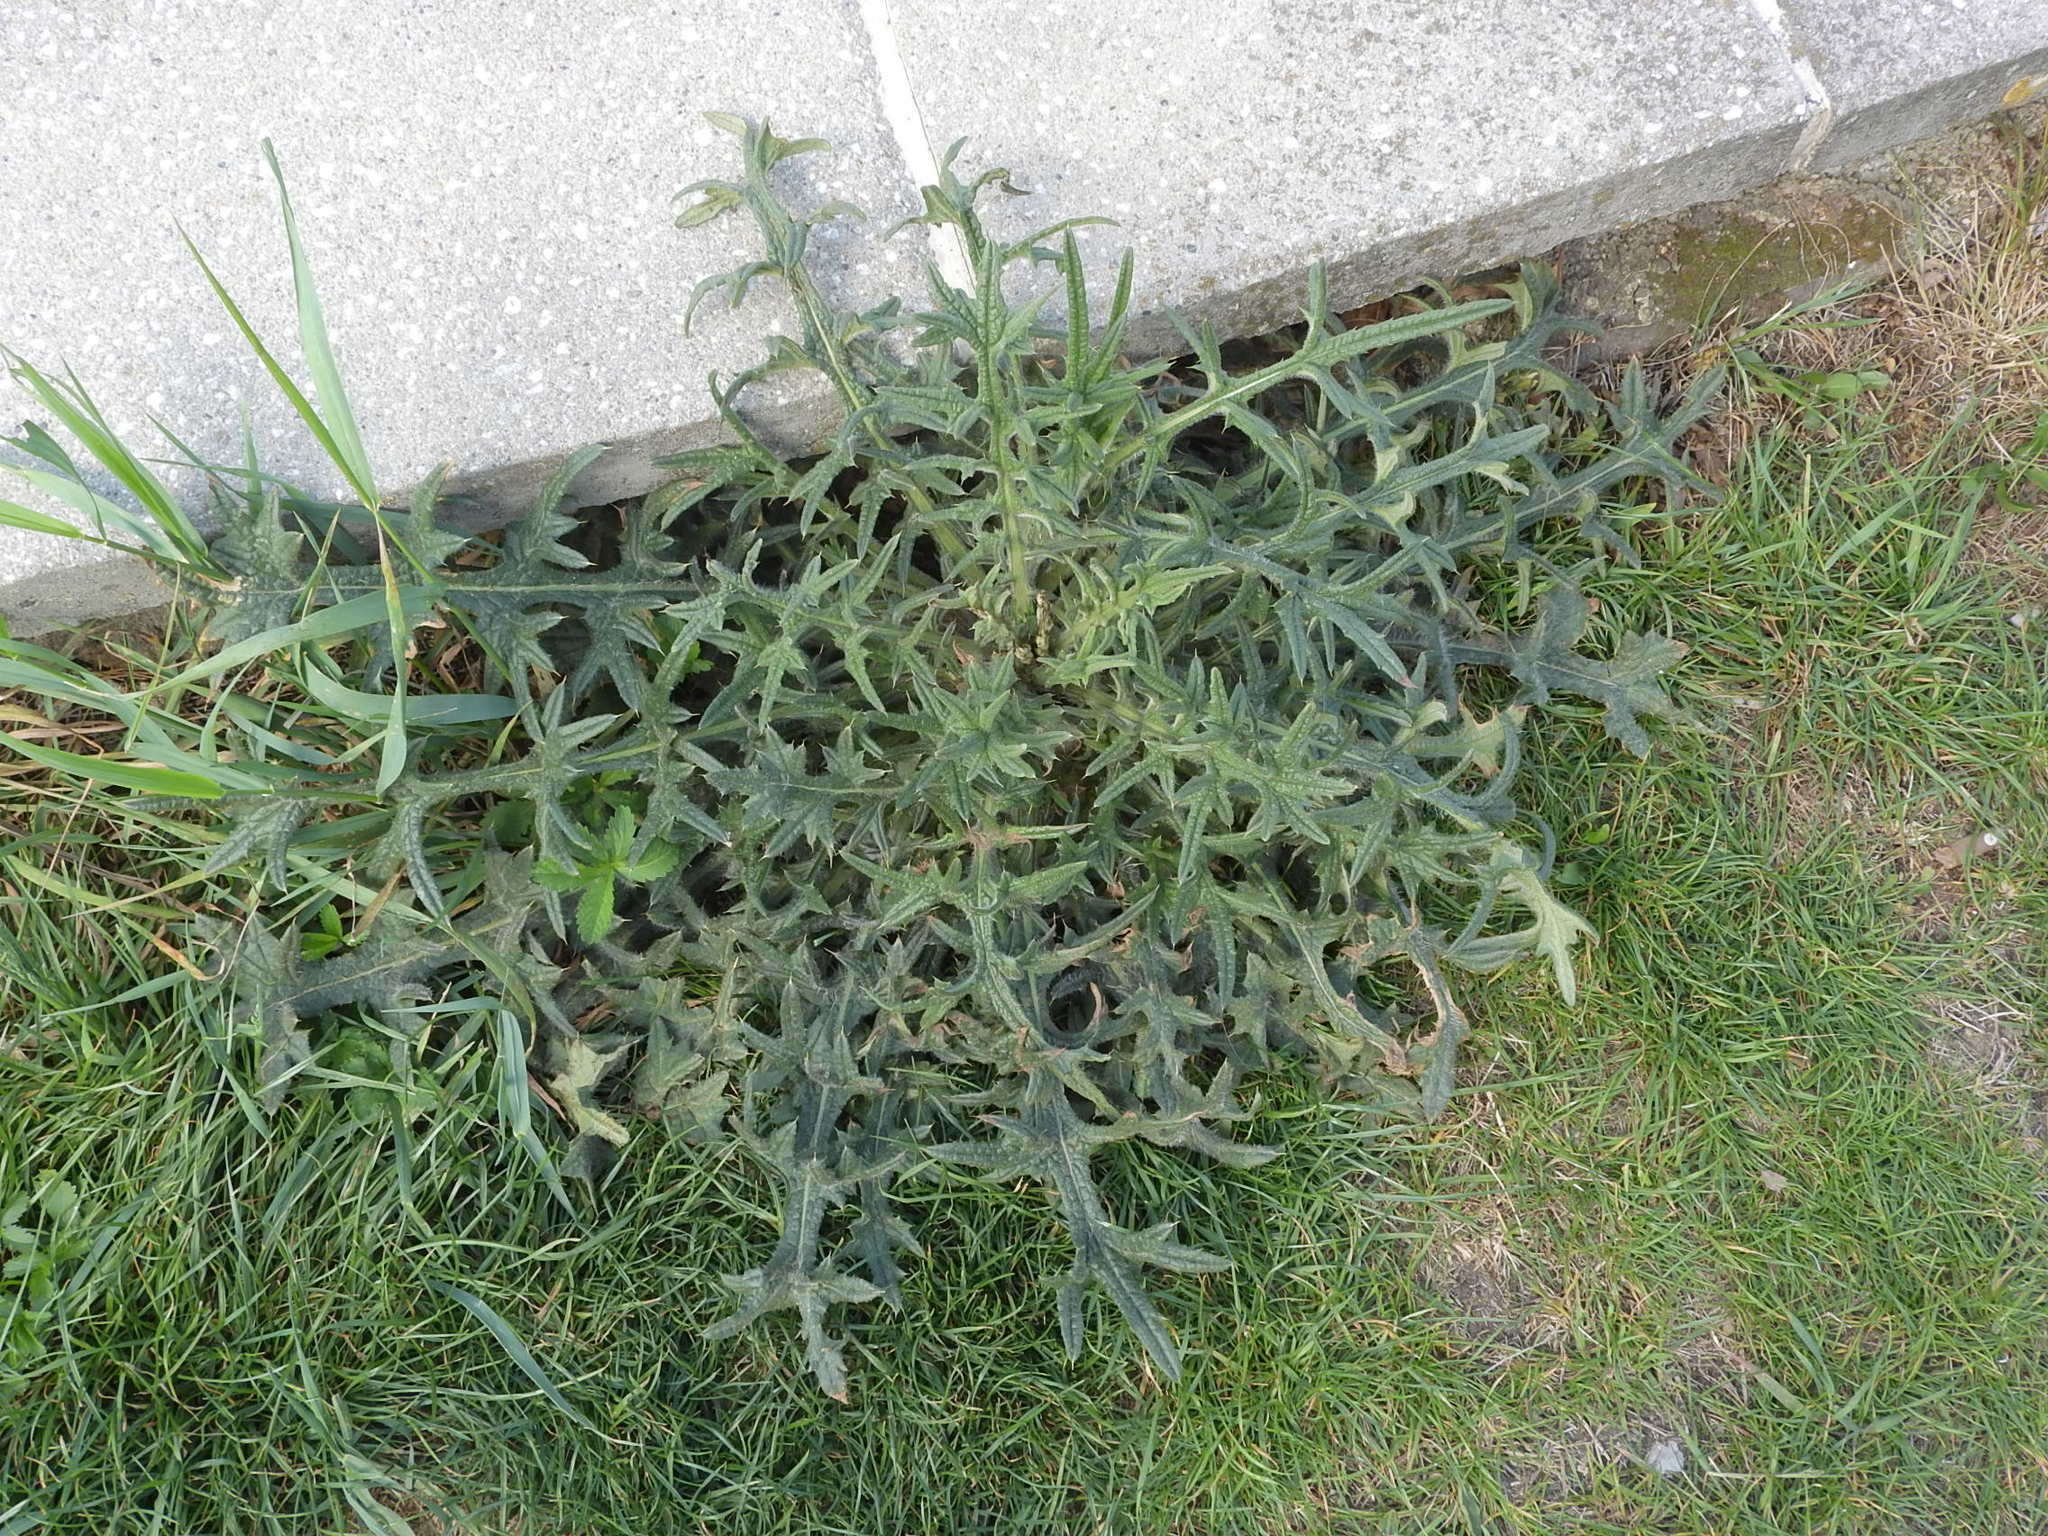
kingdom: Plantae
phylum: Tracheophyta
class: Magnoliopsida
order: Asterales
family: Asteraceae
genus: Cirsium
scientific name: Cirsium vulgare
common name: Bull thistle
